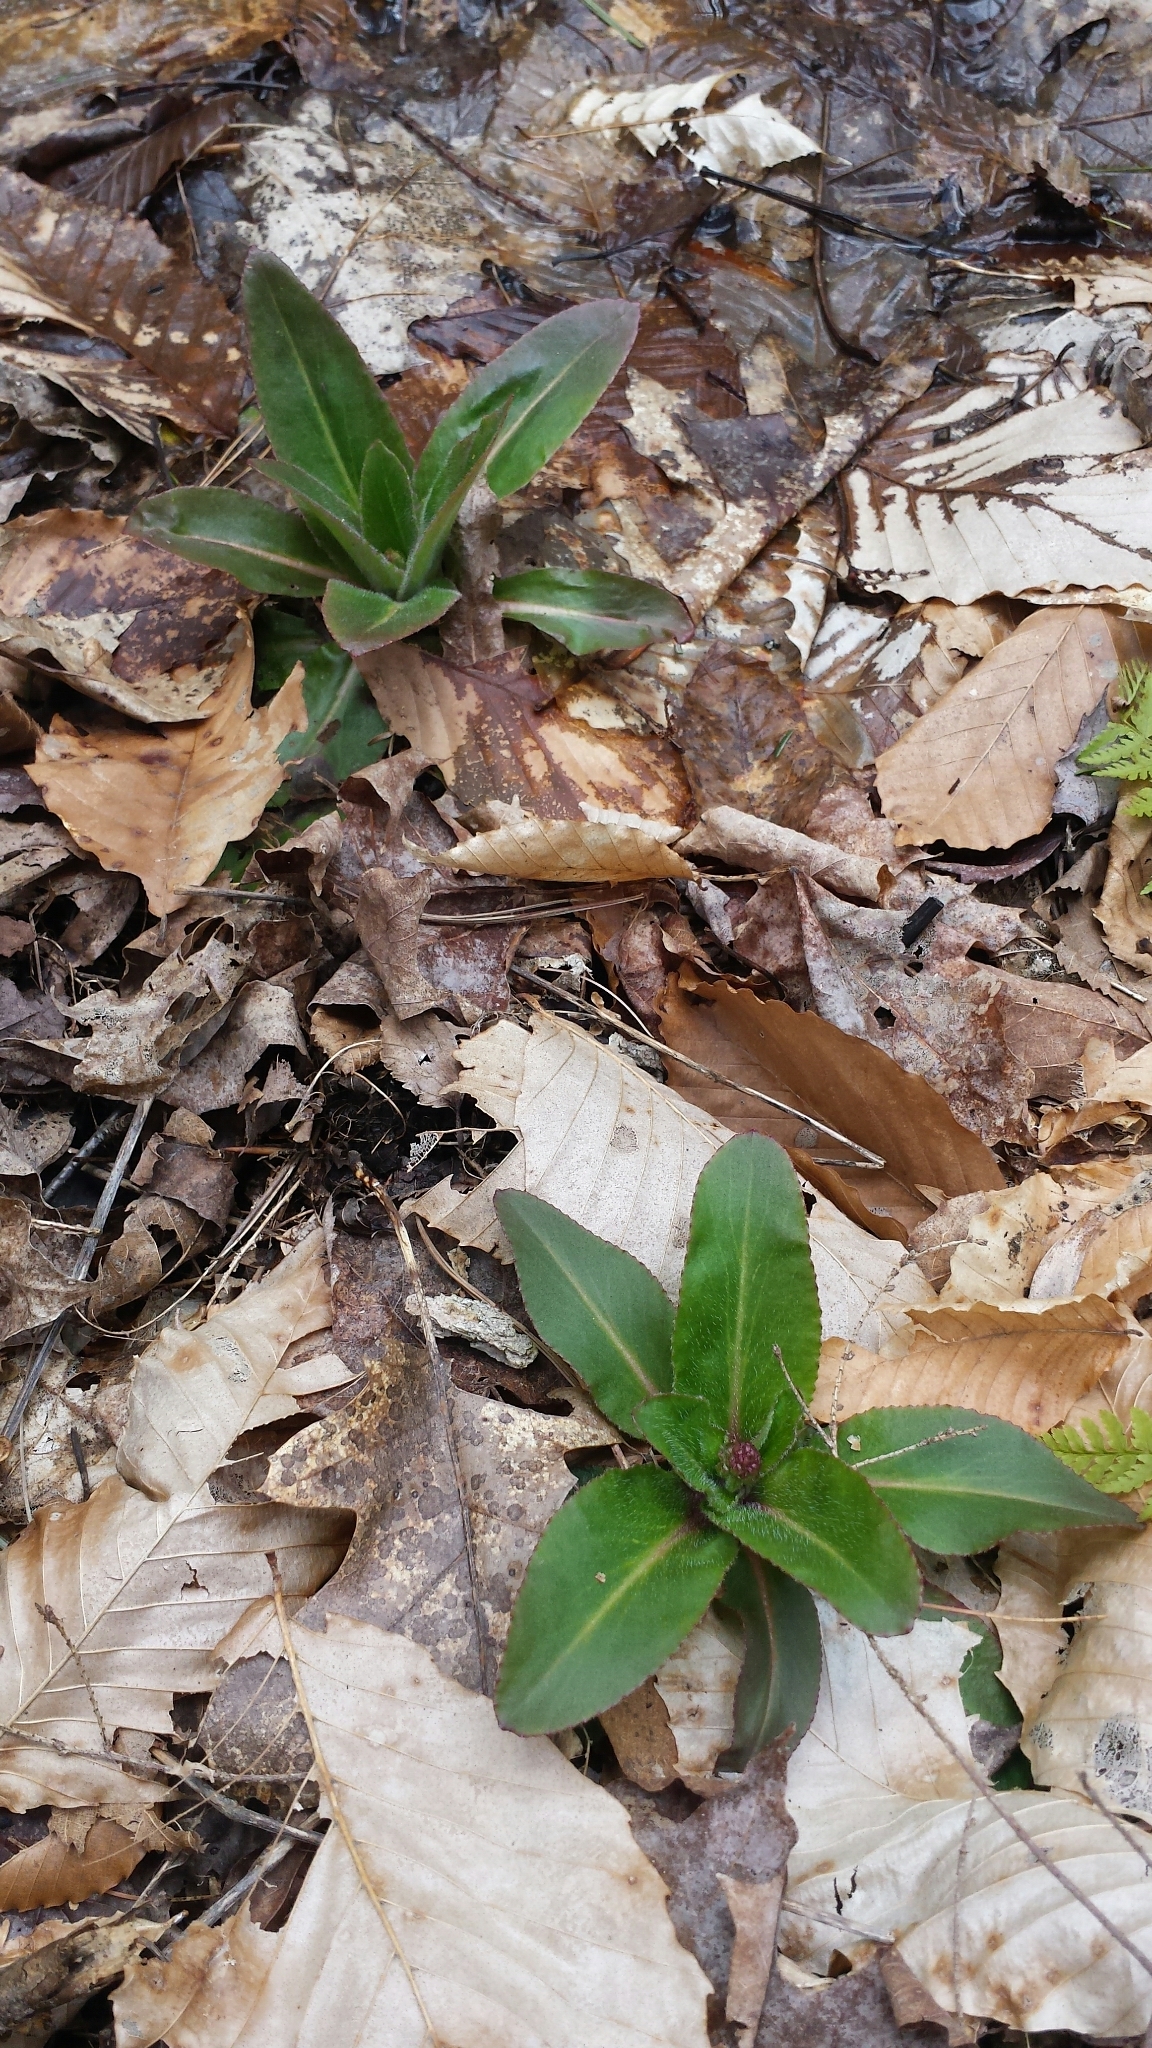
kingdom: Plantae
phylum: Tracheophyta
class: Magnoliopsida
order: Saxifragales
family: Saxifragaceae
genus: Micranthes
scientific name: Micranthes pensylvanica
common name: Marsh saxifrage
